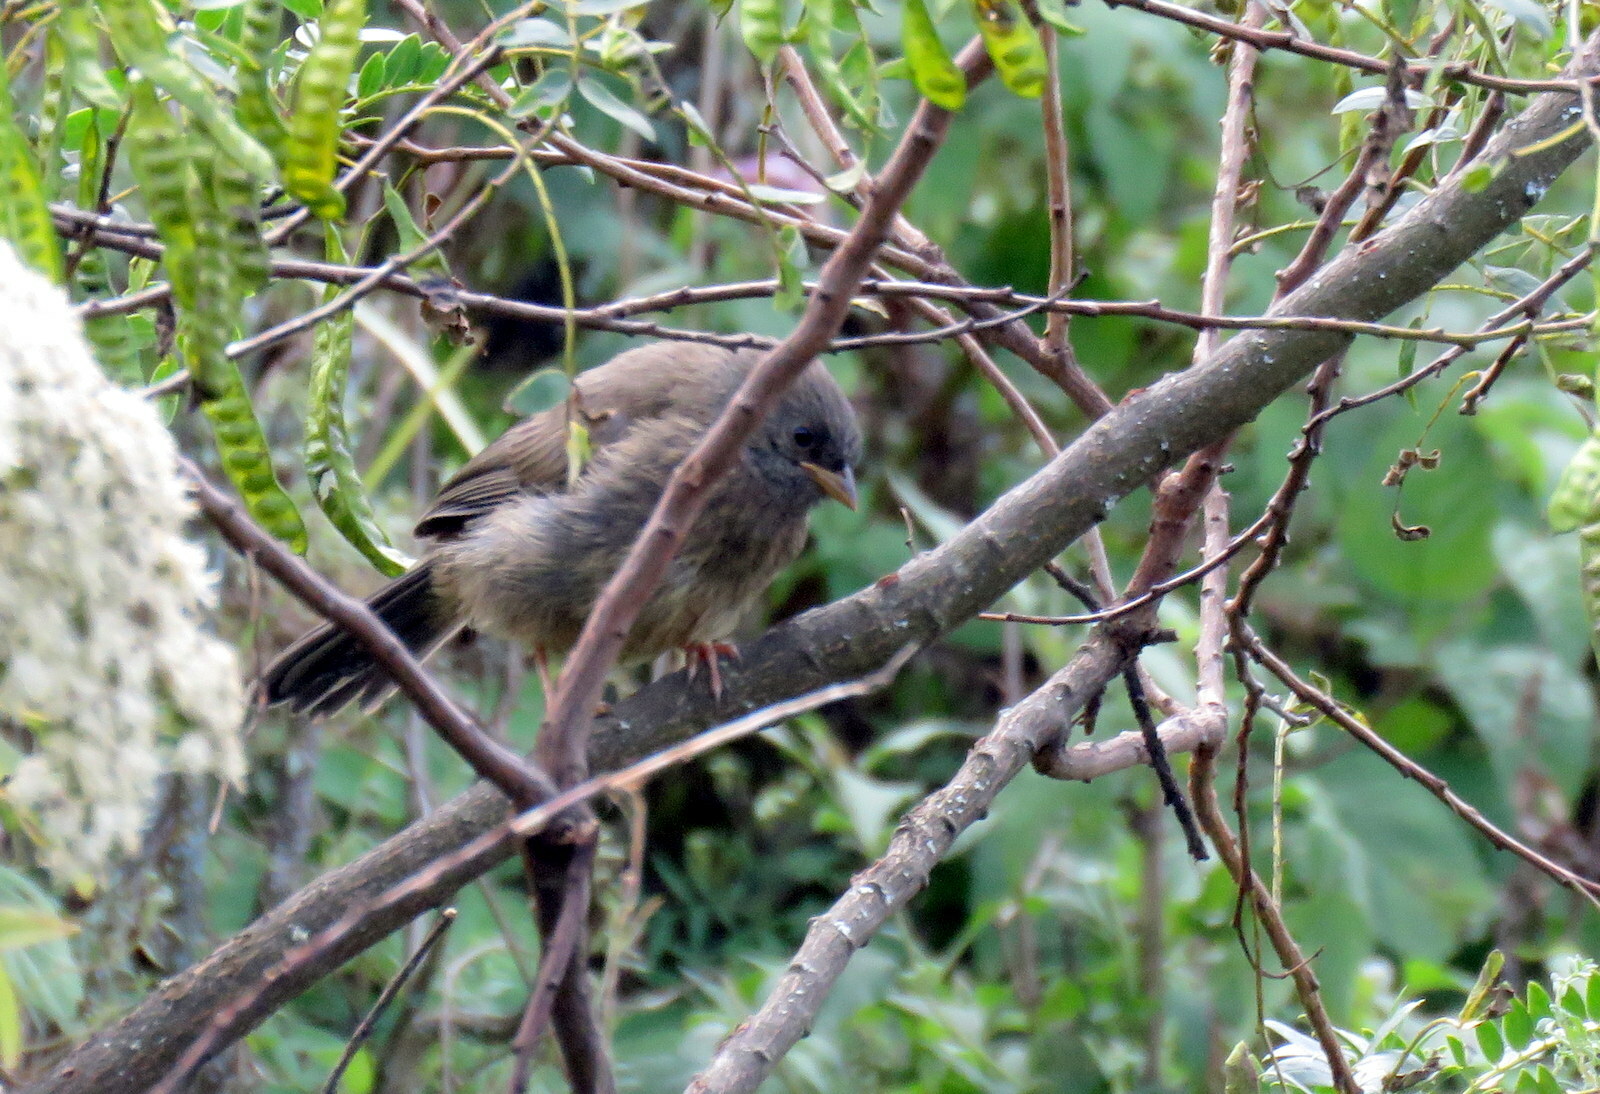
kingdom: Animalia
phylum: Chordata
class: Aves
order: Passeriformes
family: Thraupidae
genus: Poospiza
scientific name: Poospiza baeri
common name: Tucuman mountain-finch
